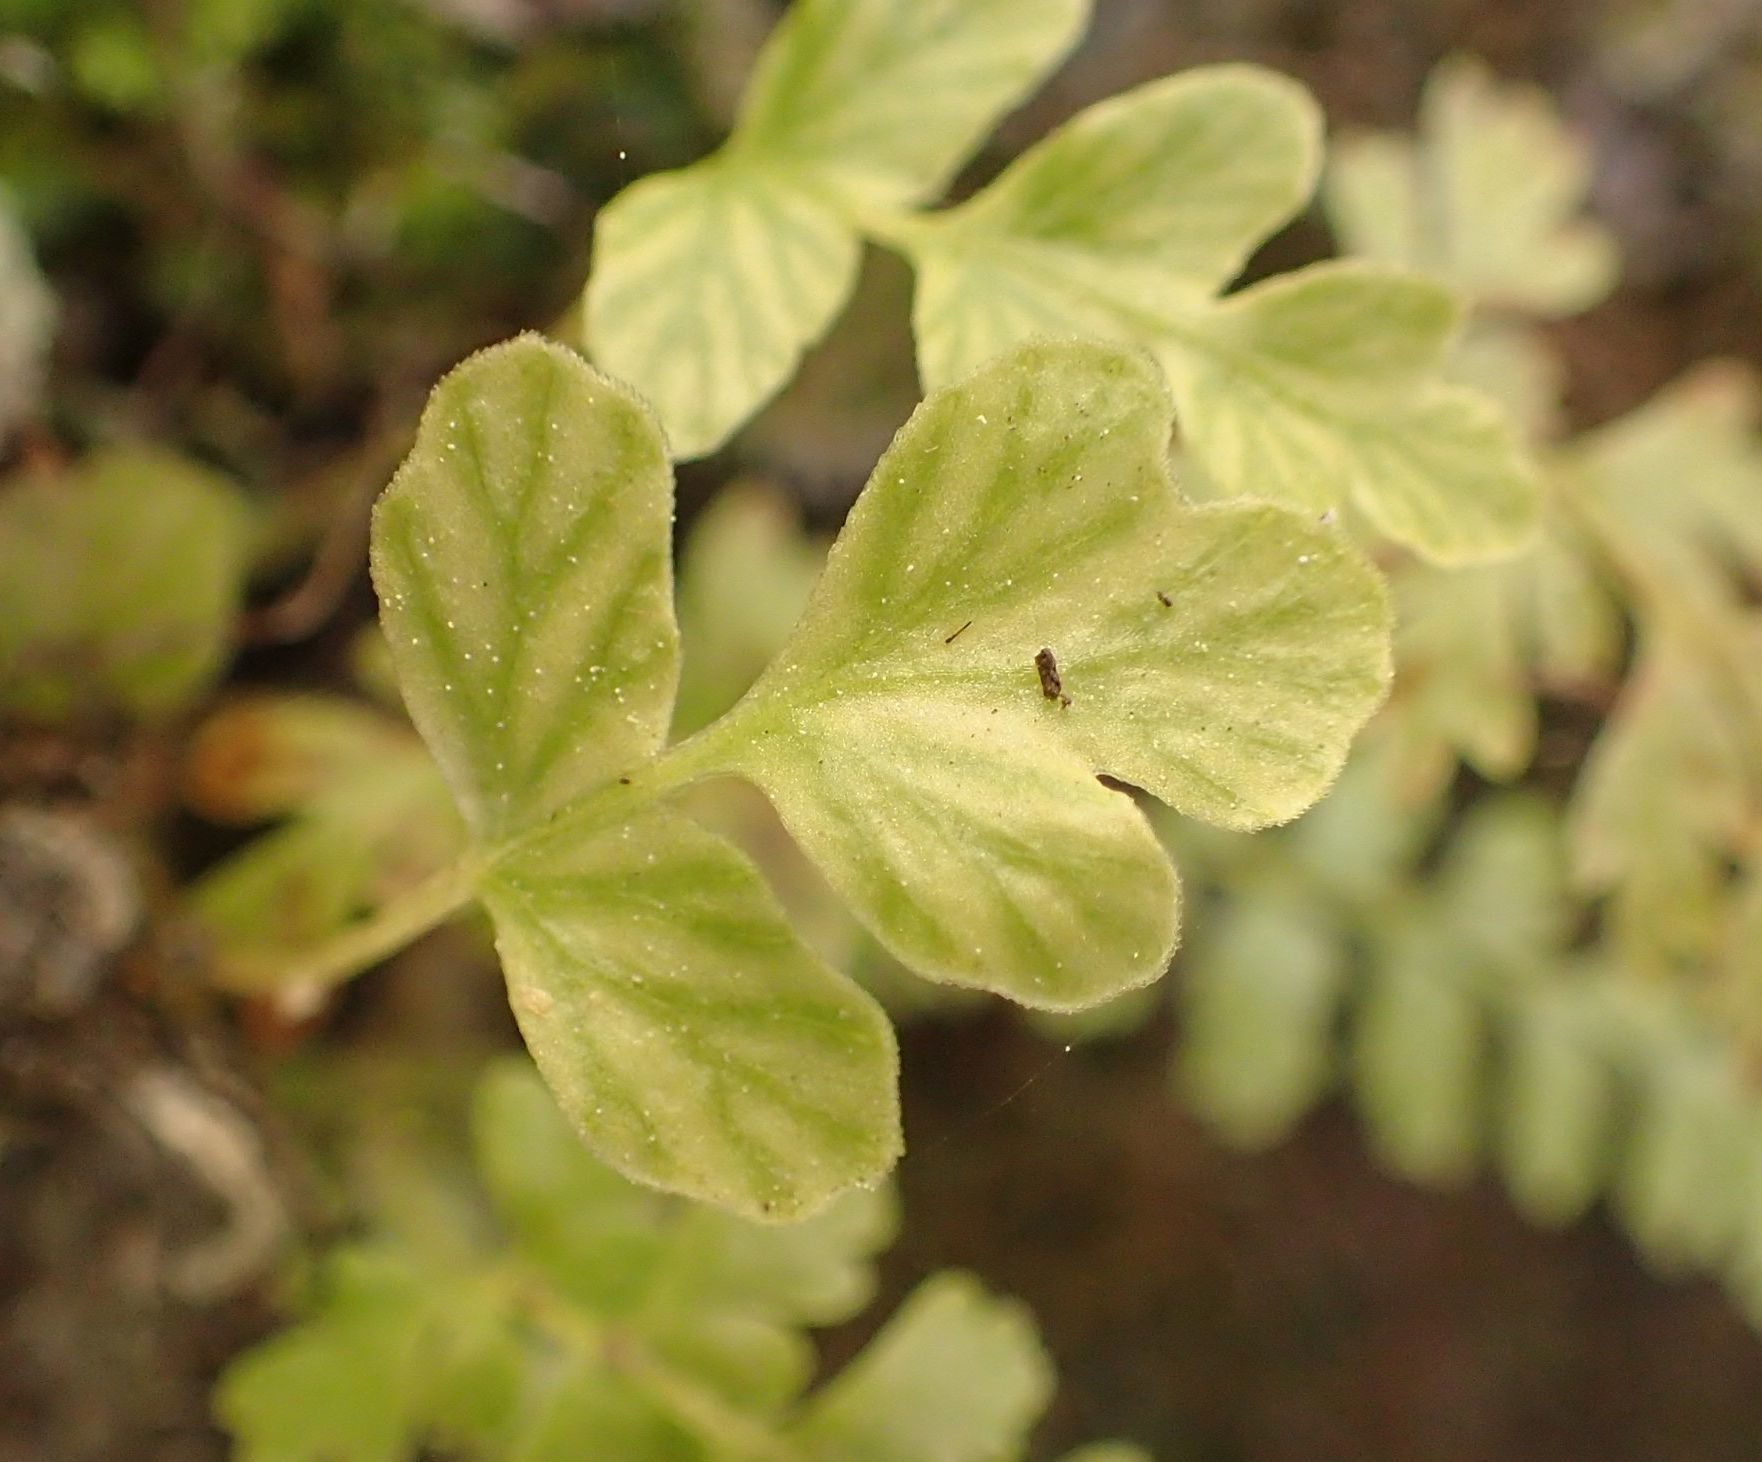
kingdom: Plantae
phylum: Tracheophyta
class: Polypodiopsida
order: Polypodiales
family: Dennstaedtiaceae
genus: Histiopteris
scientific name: Histiopteris incisa
